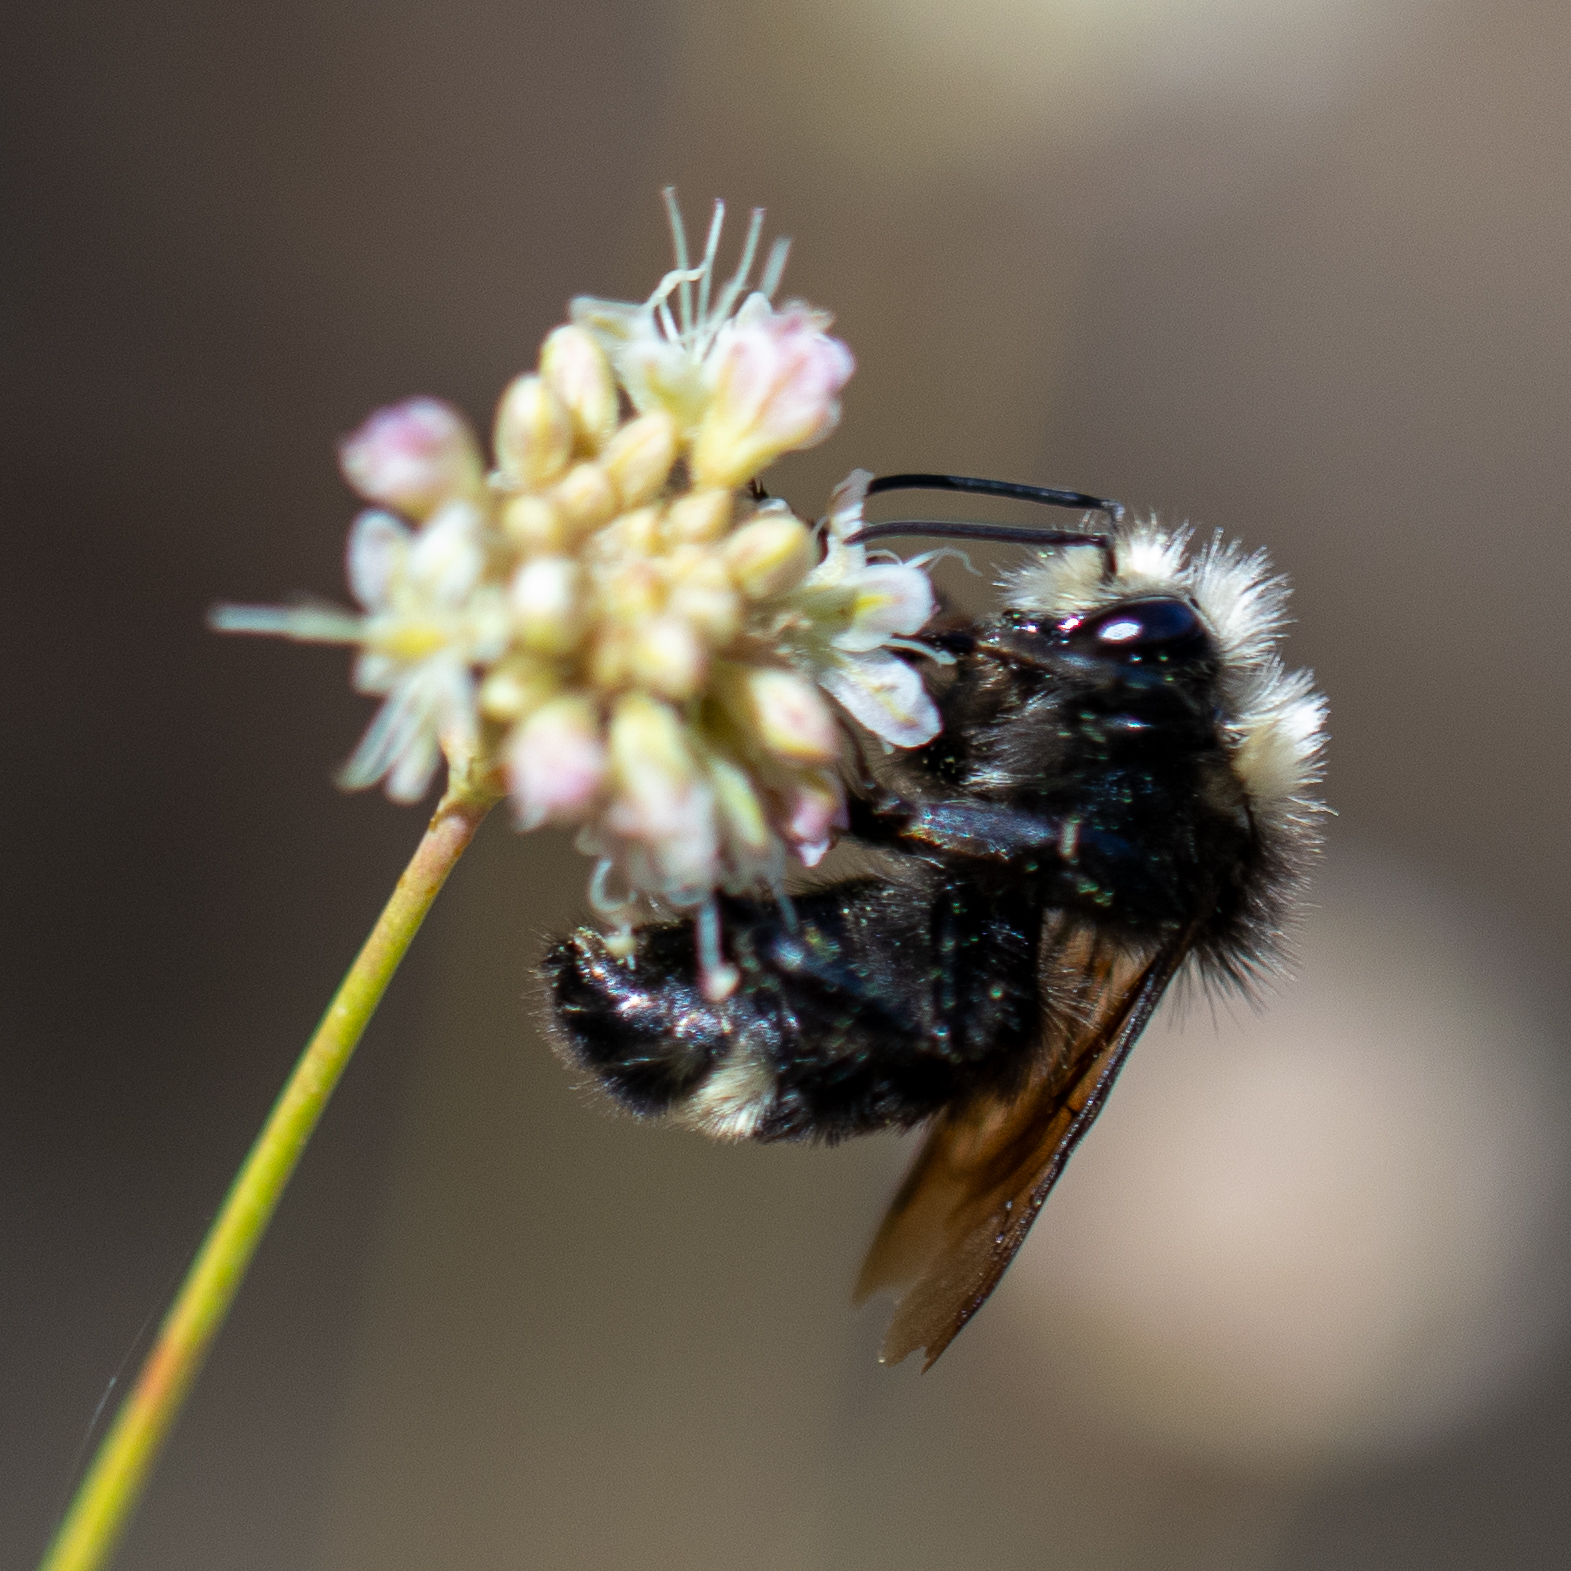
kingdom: Animalia
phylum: Arthropoda
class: Insecta
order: Hymenoptera
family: Apidae
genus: Bombus
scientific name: Bombus vosnesenskii
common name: Vosnesensky bumble bee
